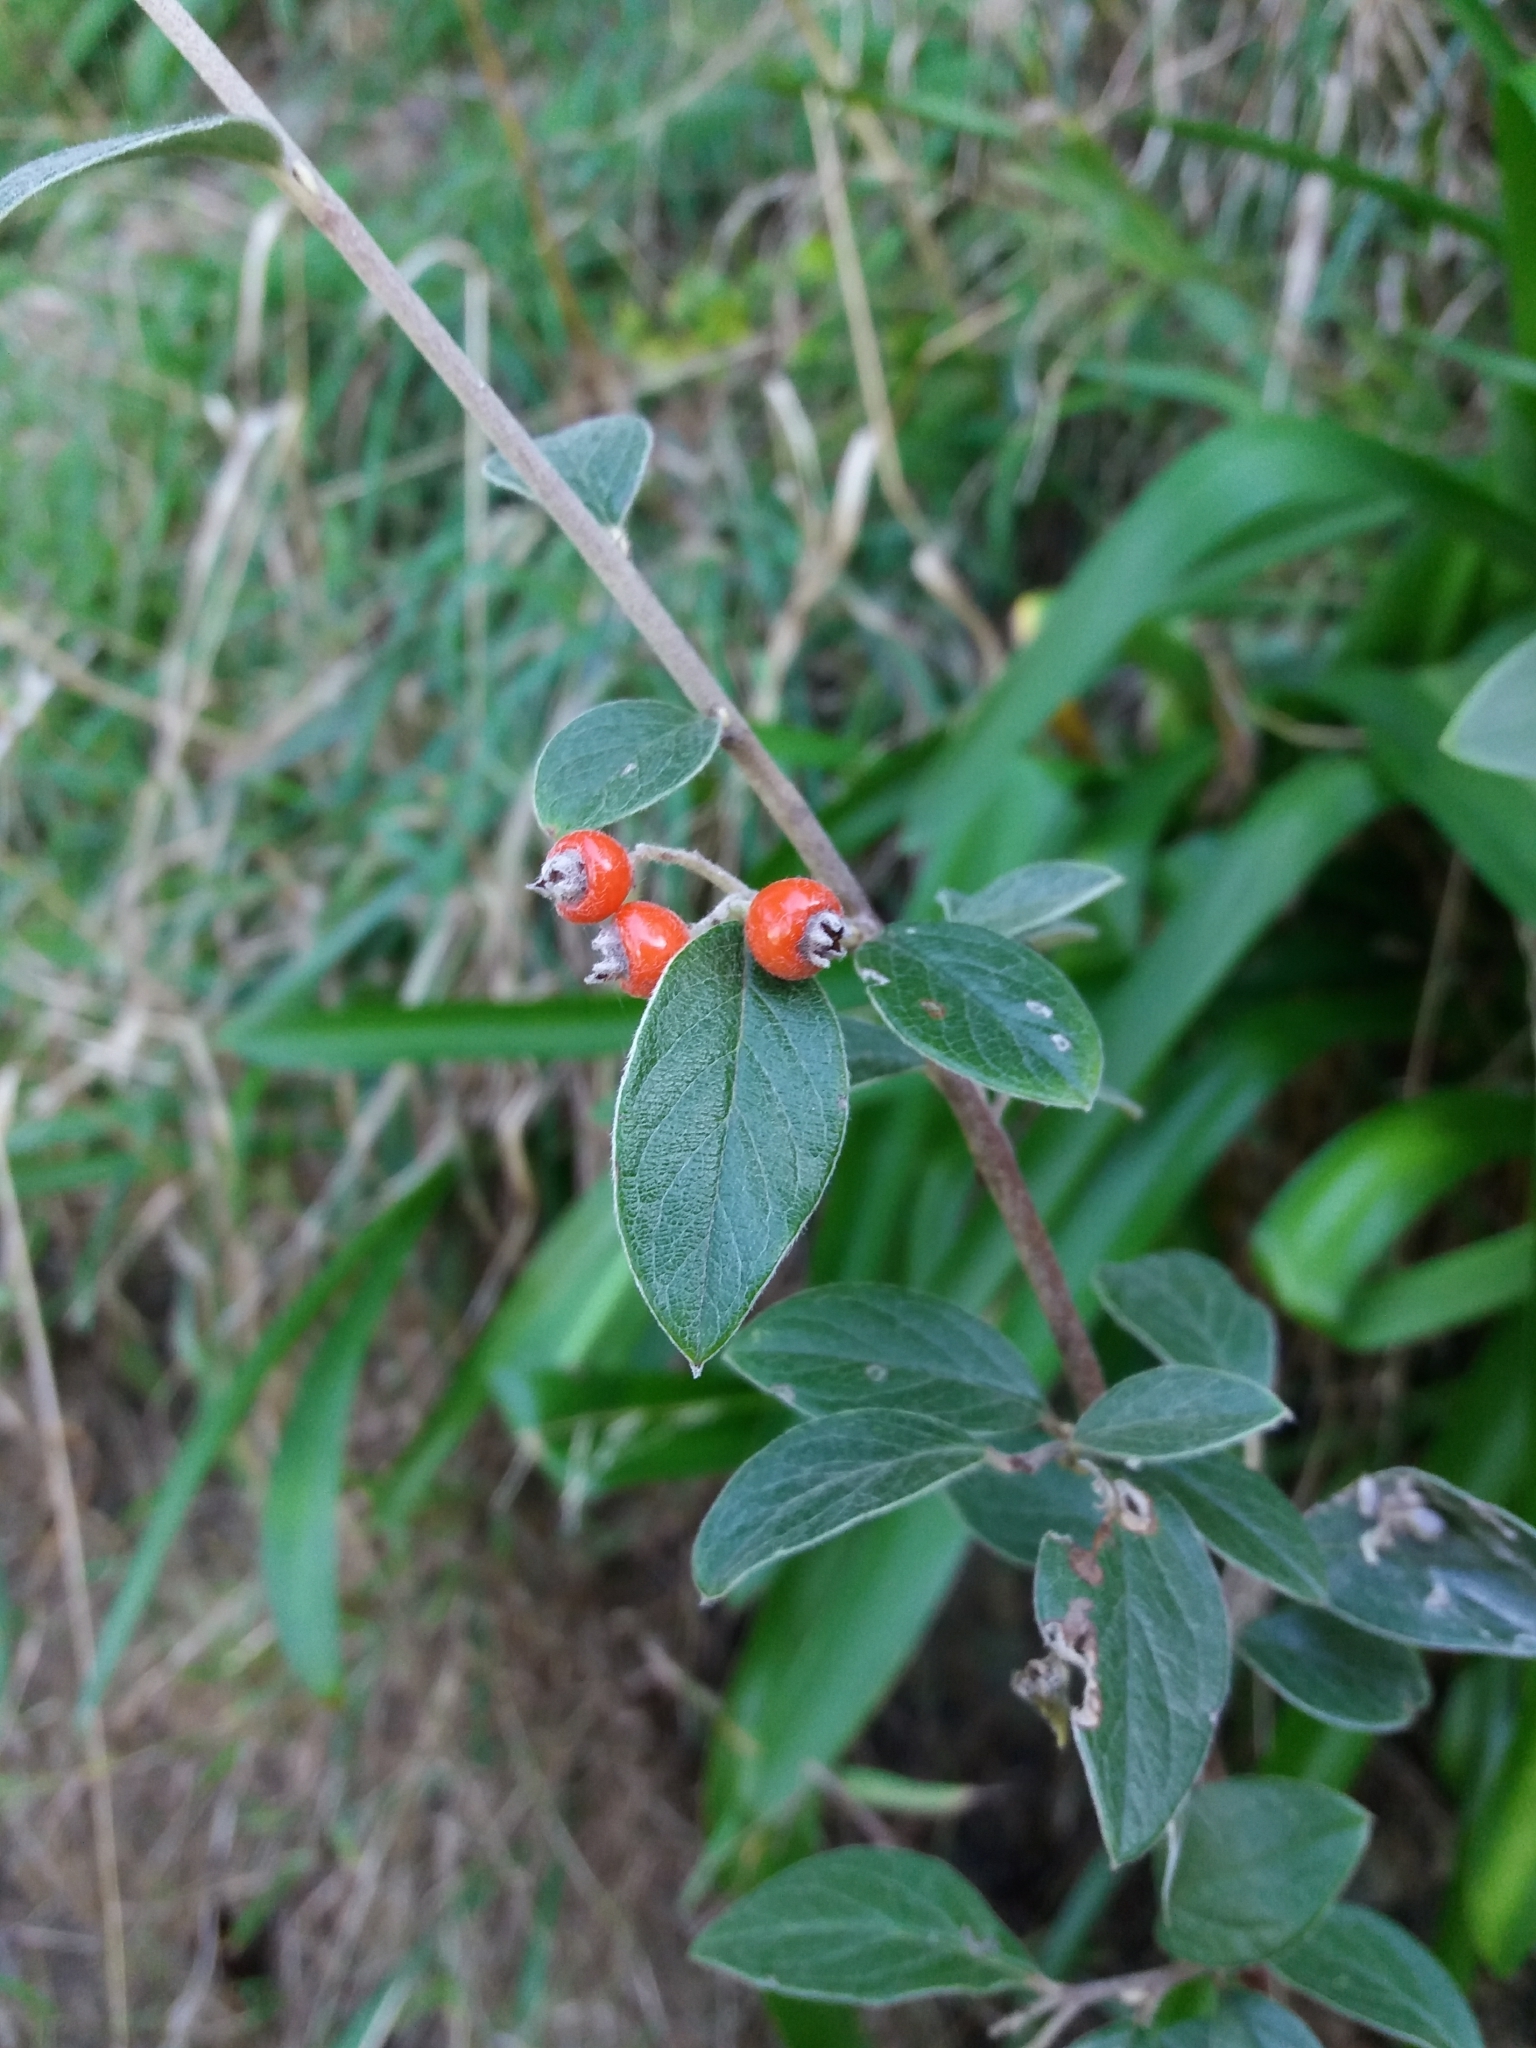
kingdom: Plantae
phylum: Tracheophyta
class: Magnoliopsida
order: Rosales
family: Rosaceae
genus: Cotoneaster
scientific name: Cotoneaster franchetii
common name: Franchet's cotoneaster
